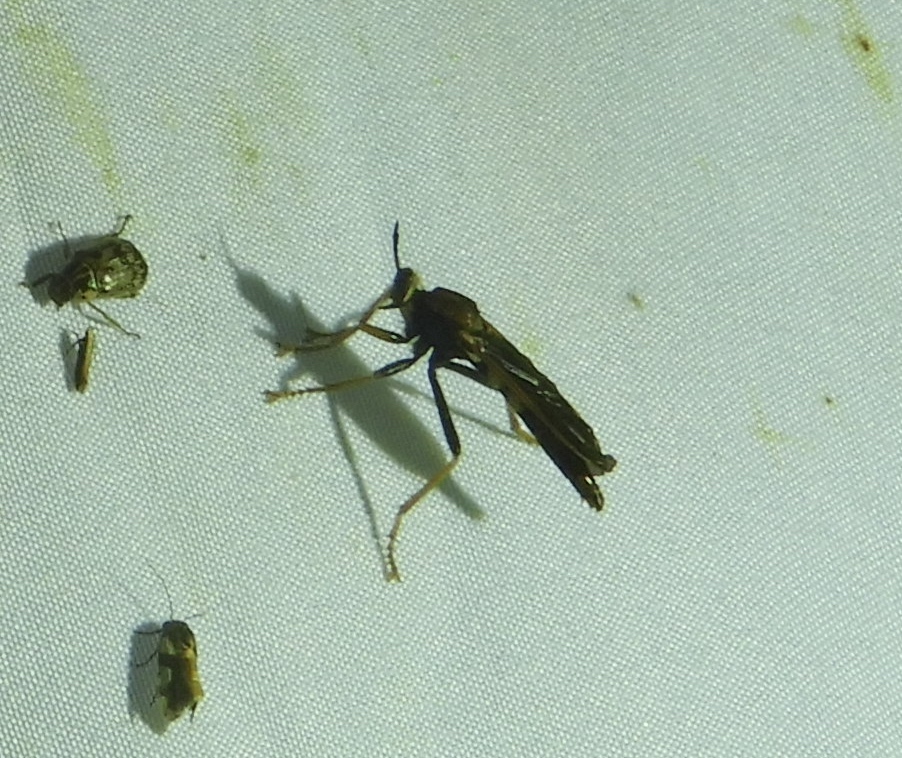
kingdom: Animalia
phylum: Arthropoda
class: Insecta
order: Diptera
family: Asilidae
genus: Ospriocerus
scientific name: Ospriocerus
